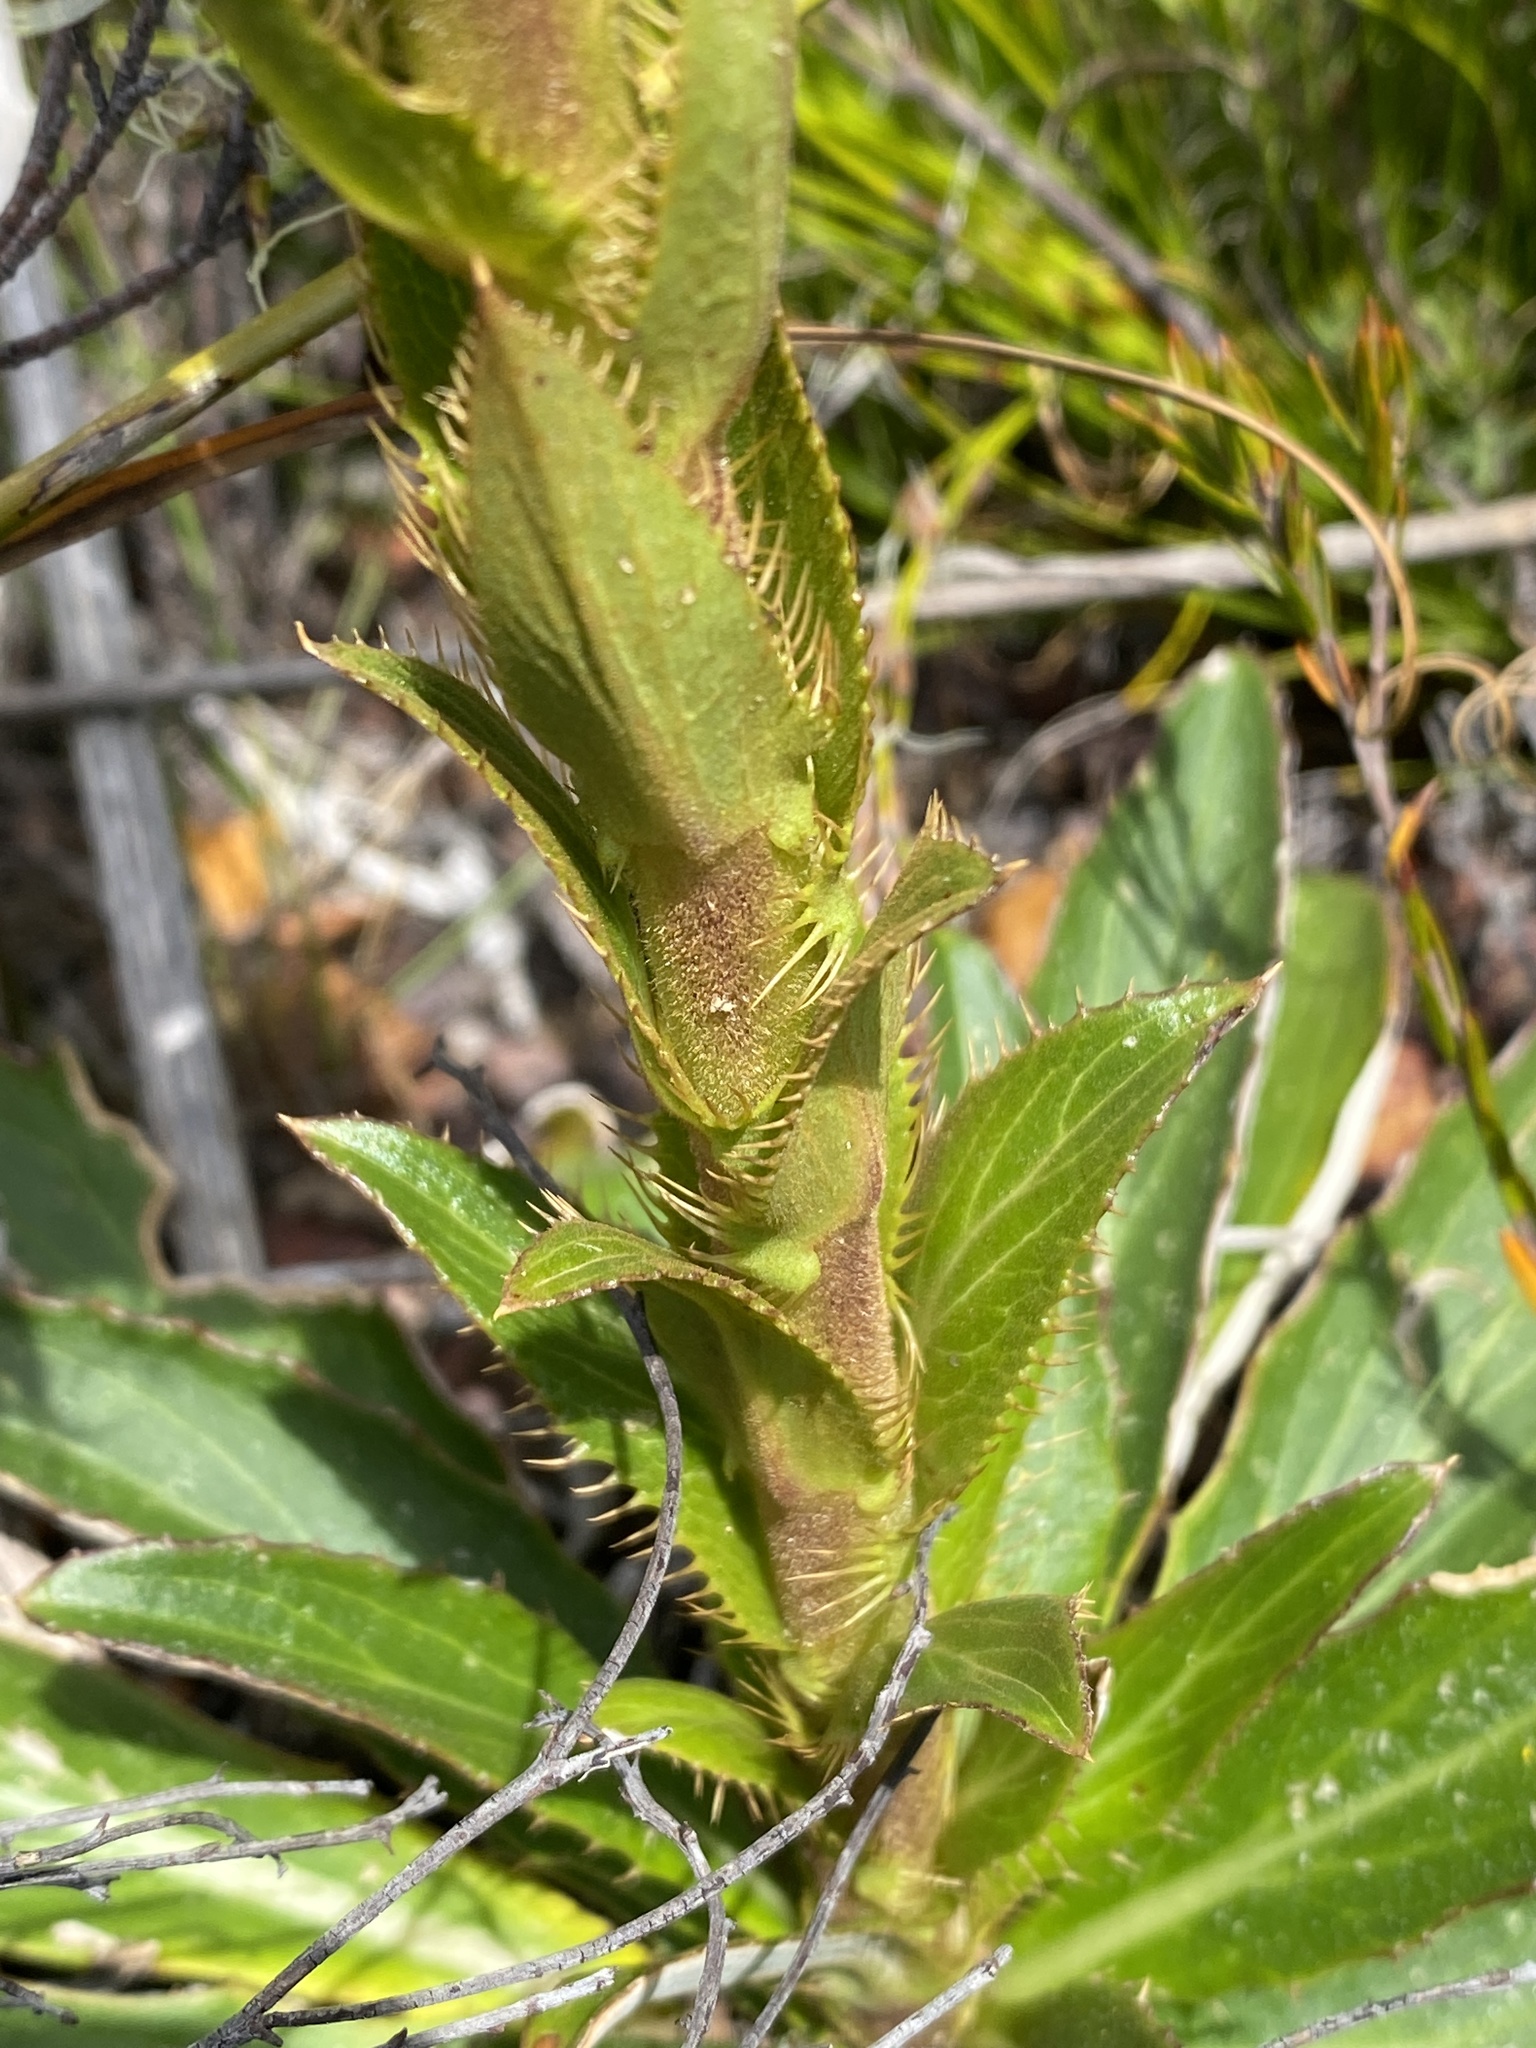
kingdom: Plantae
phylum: Tracheophyta
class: Magnoliopsida
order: Asterales
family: Asteraceae
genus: Berkheya
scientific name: Berkheya herbacea
